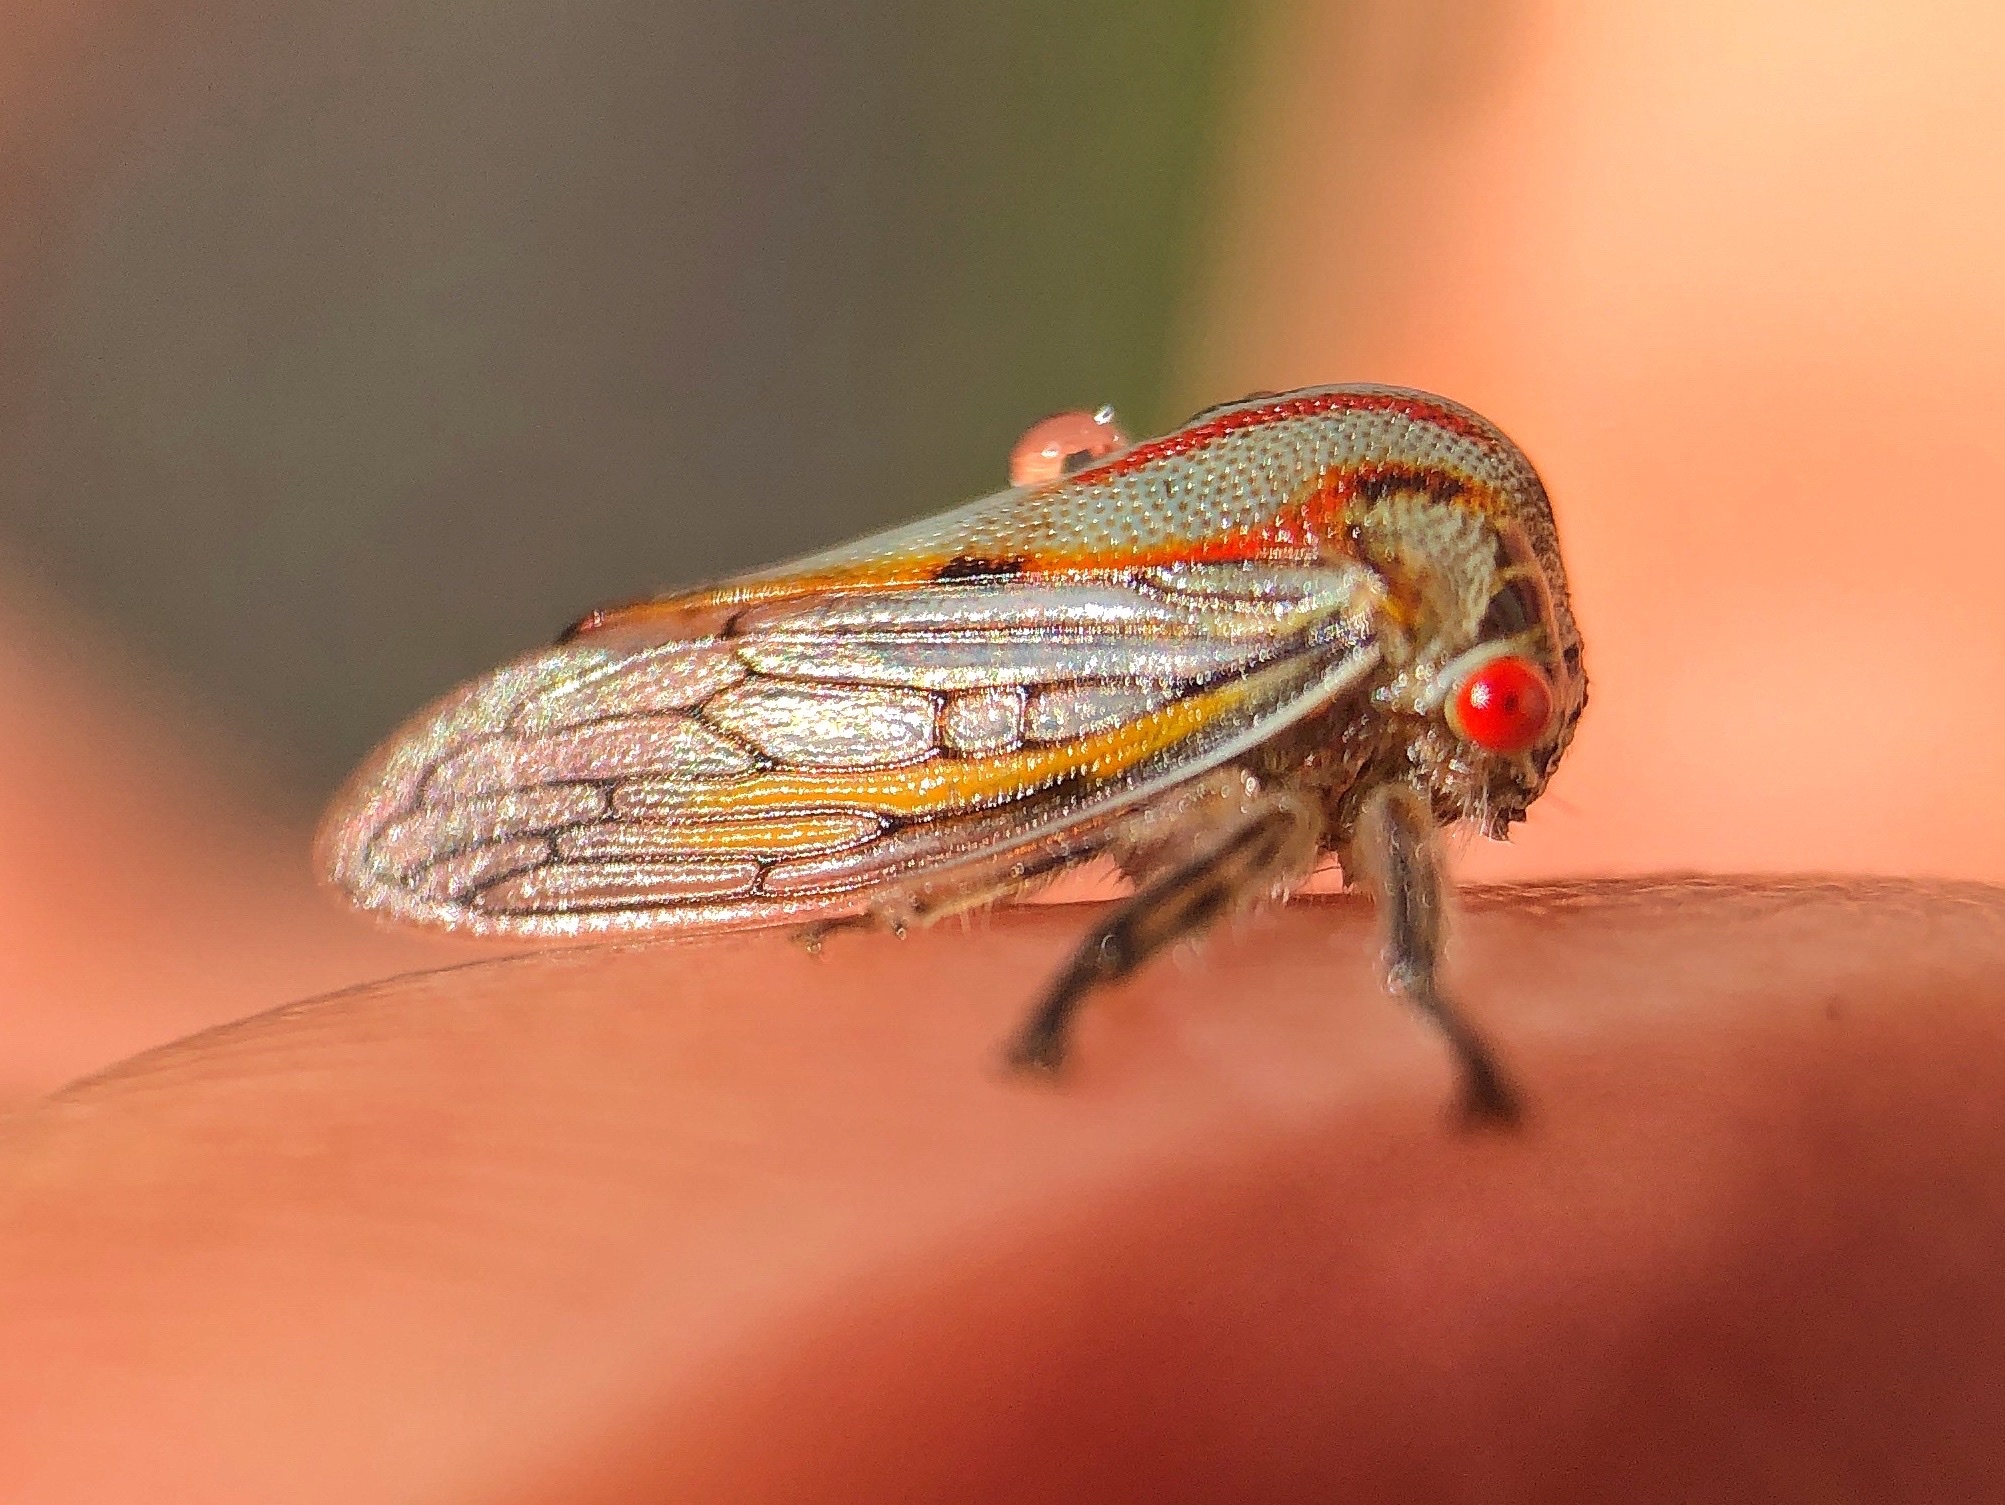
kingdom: Animalia
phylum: Arthropoda
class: Insecta
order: Hemiptera
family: Membracidae
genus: Platycotis
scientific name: Platycotis vittatus
